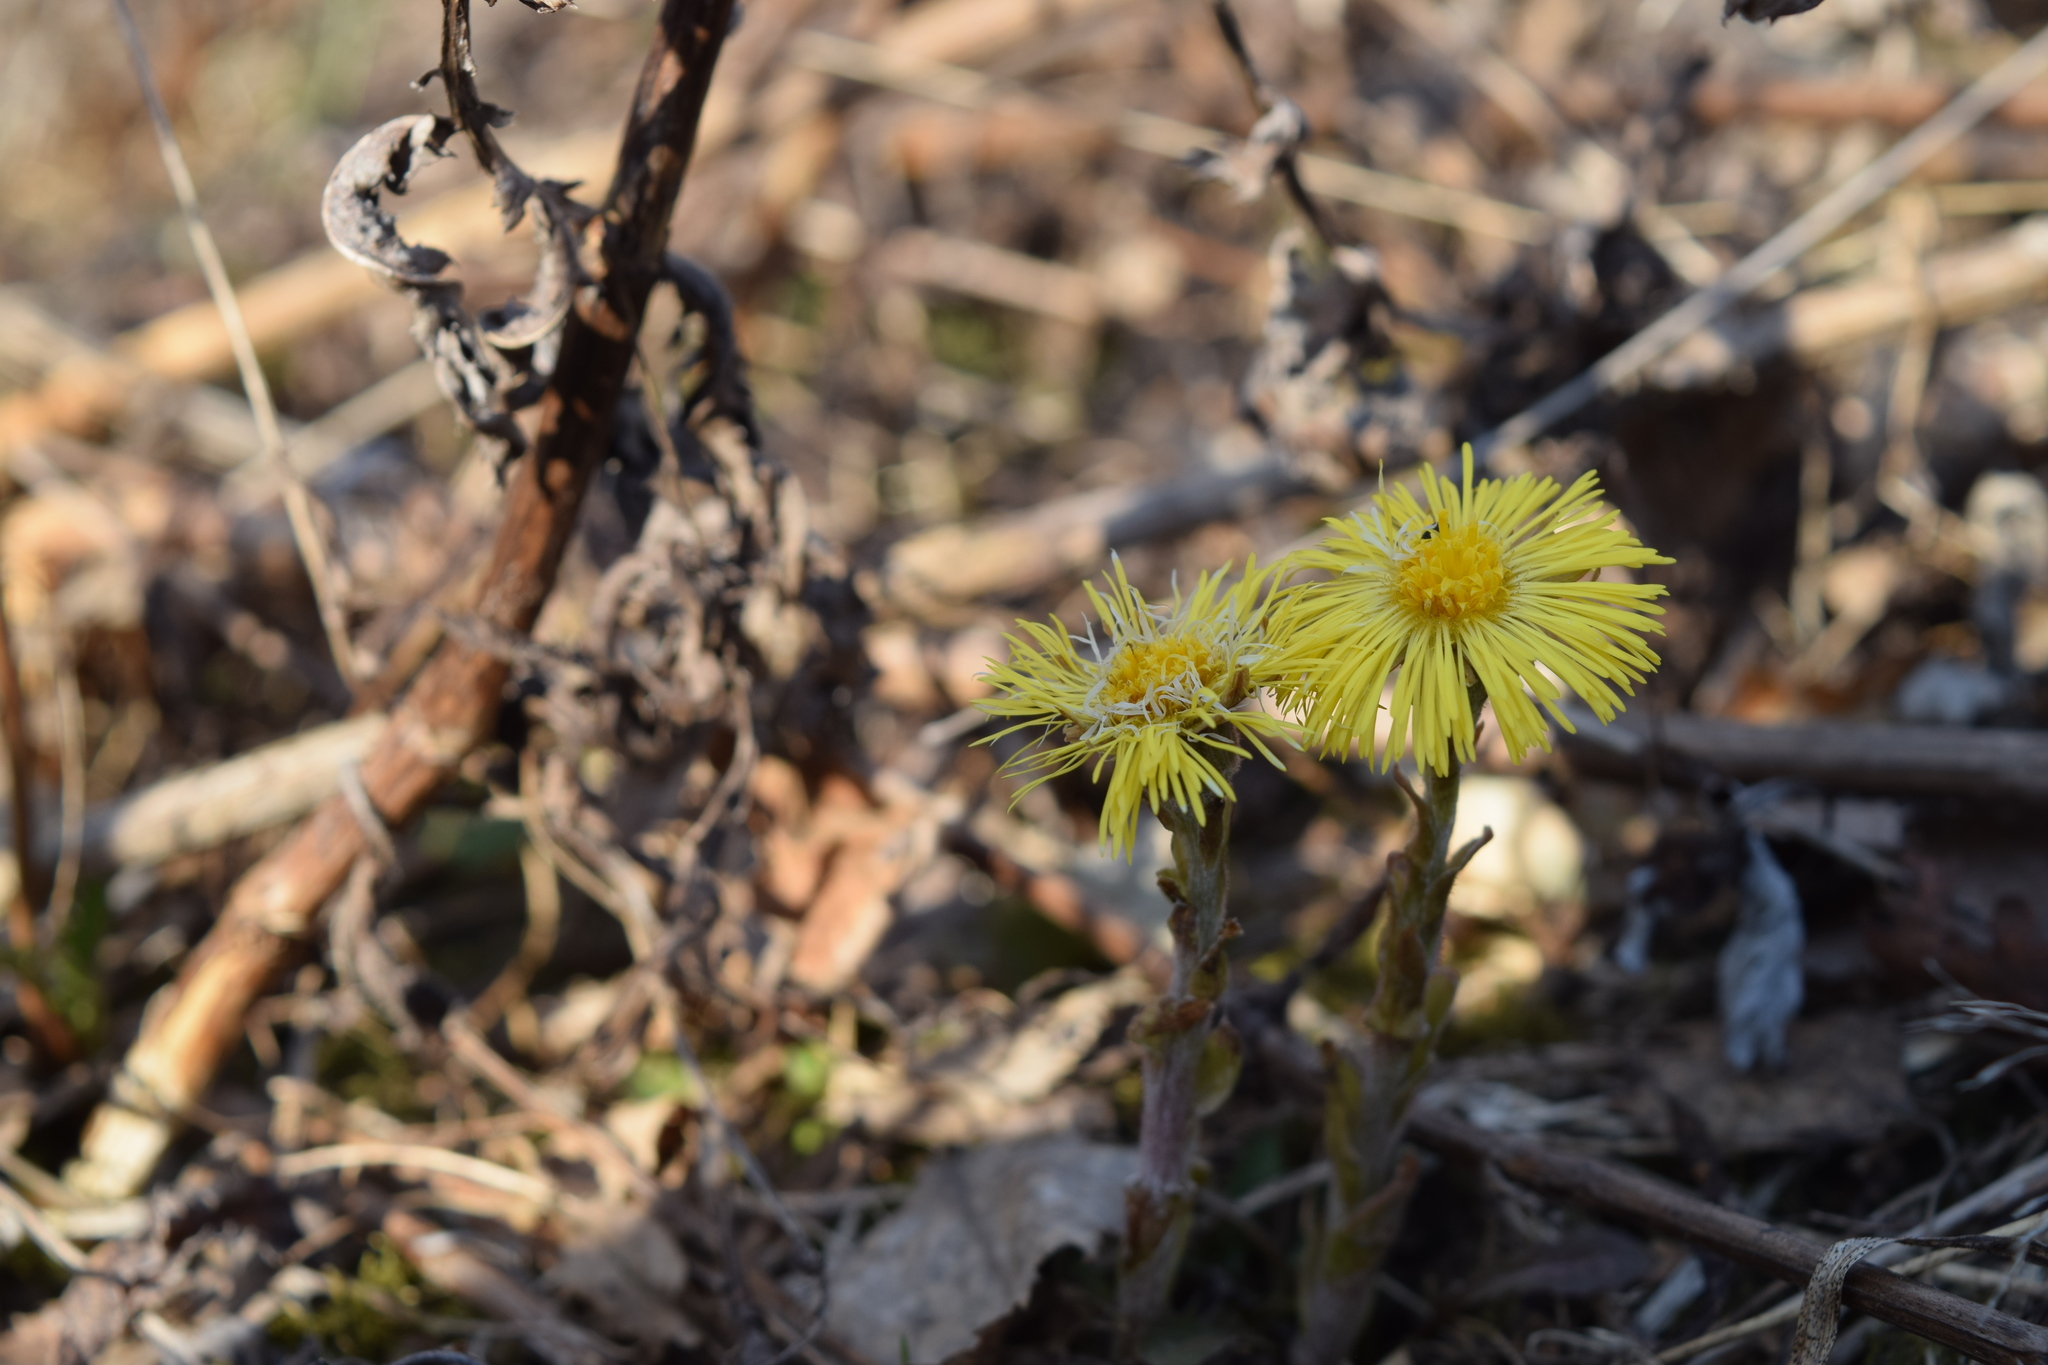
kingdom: Plantae
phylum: Tracheophyta
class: Magnoliopsida
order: Asterales
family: Asteraceae
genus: Tussilago
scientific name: Tussilago farfara
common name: Coltsfoot
